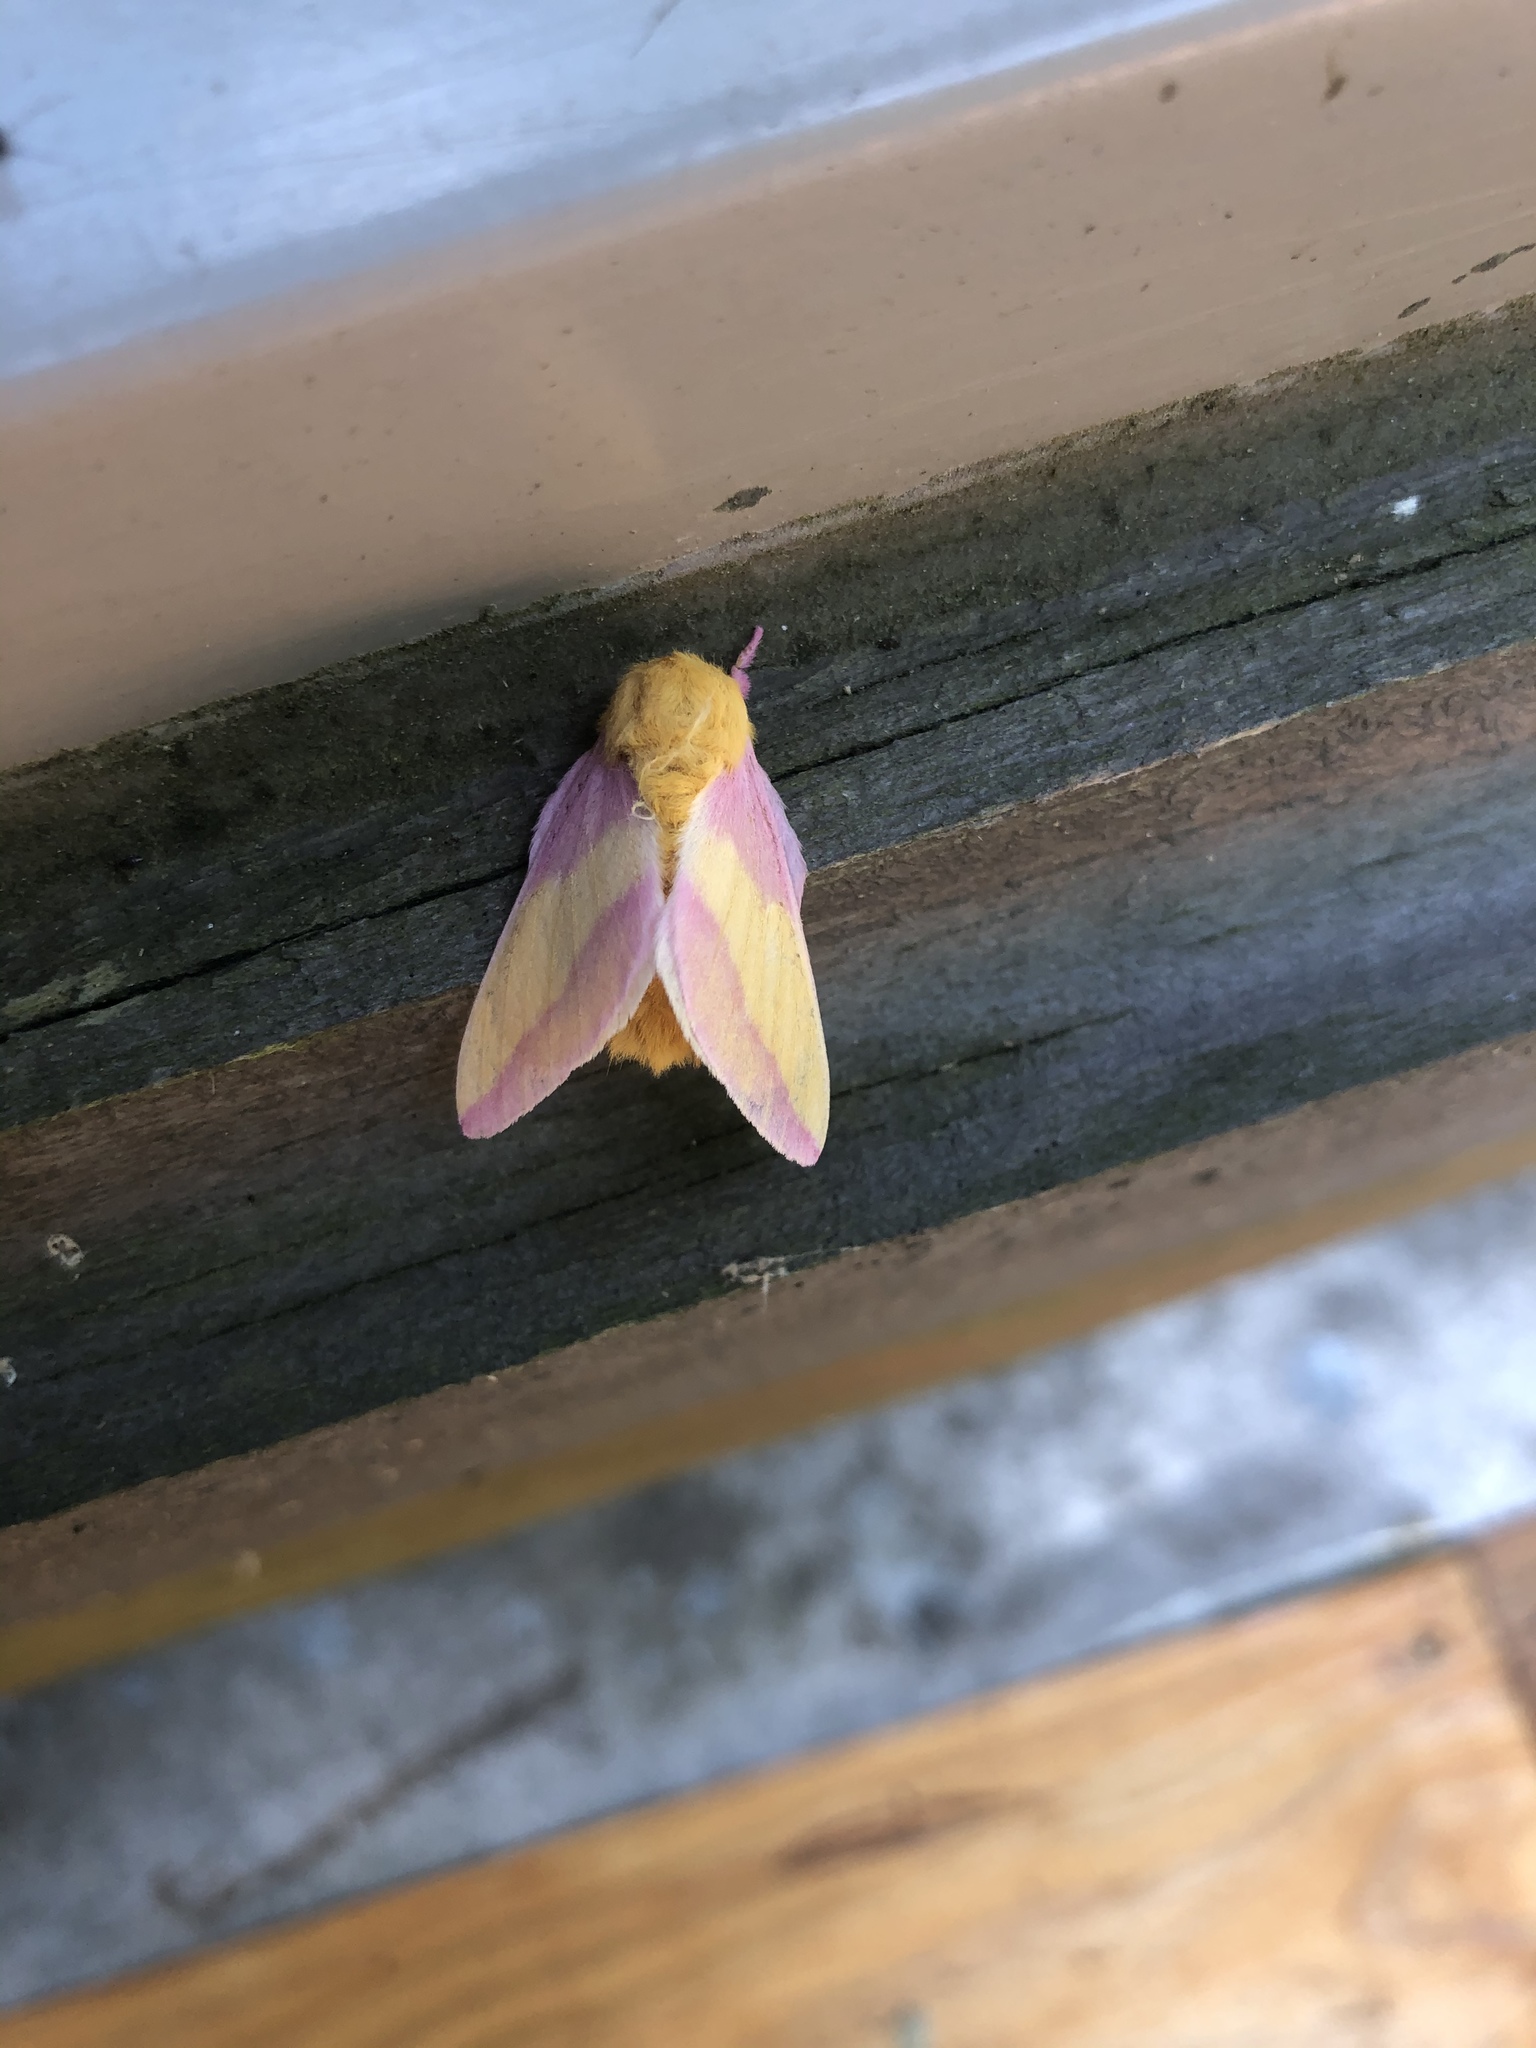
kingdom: Animalia
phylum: Arthropoda
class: Insecta
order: Lepidoptera
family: Saturniidae
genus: Dryocampa
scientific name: Dryocampa rubicunda
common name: Rosy maple moth
